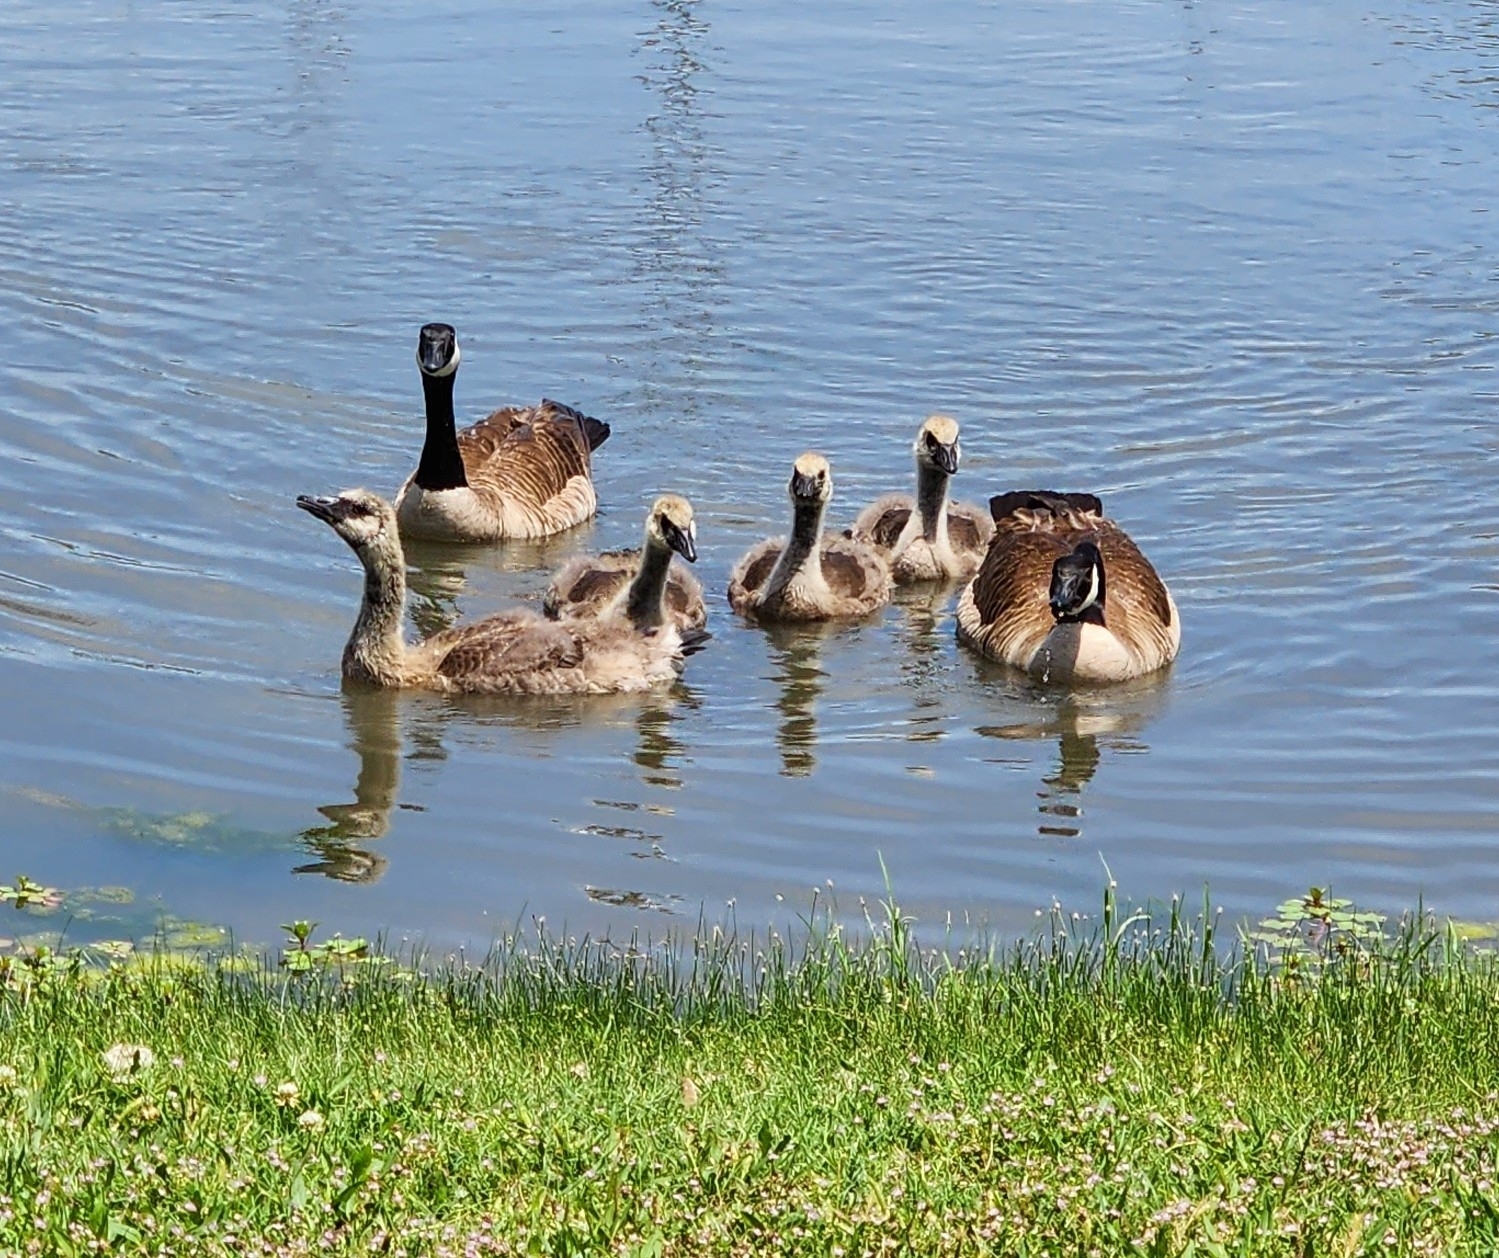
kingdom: Animalia
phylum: Chordata
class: Aves
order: Anseriformes
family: Anatidae
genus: Branta
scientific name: Branta canadensis
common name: Canada goose
